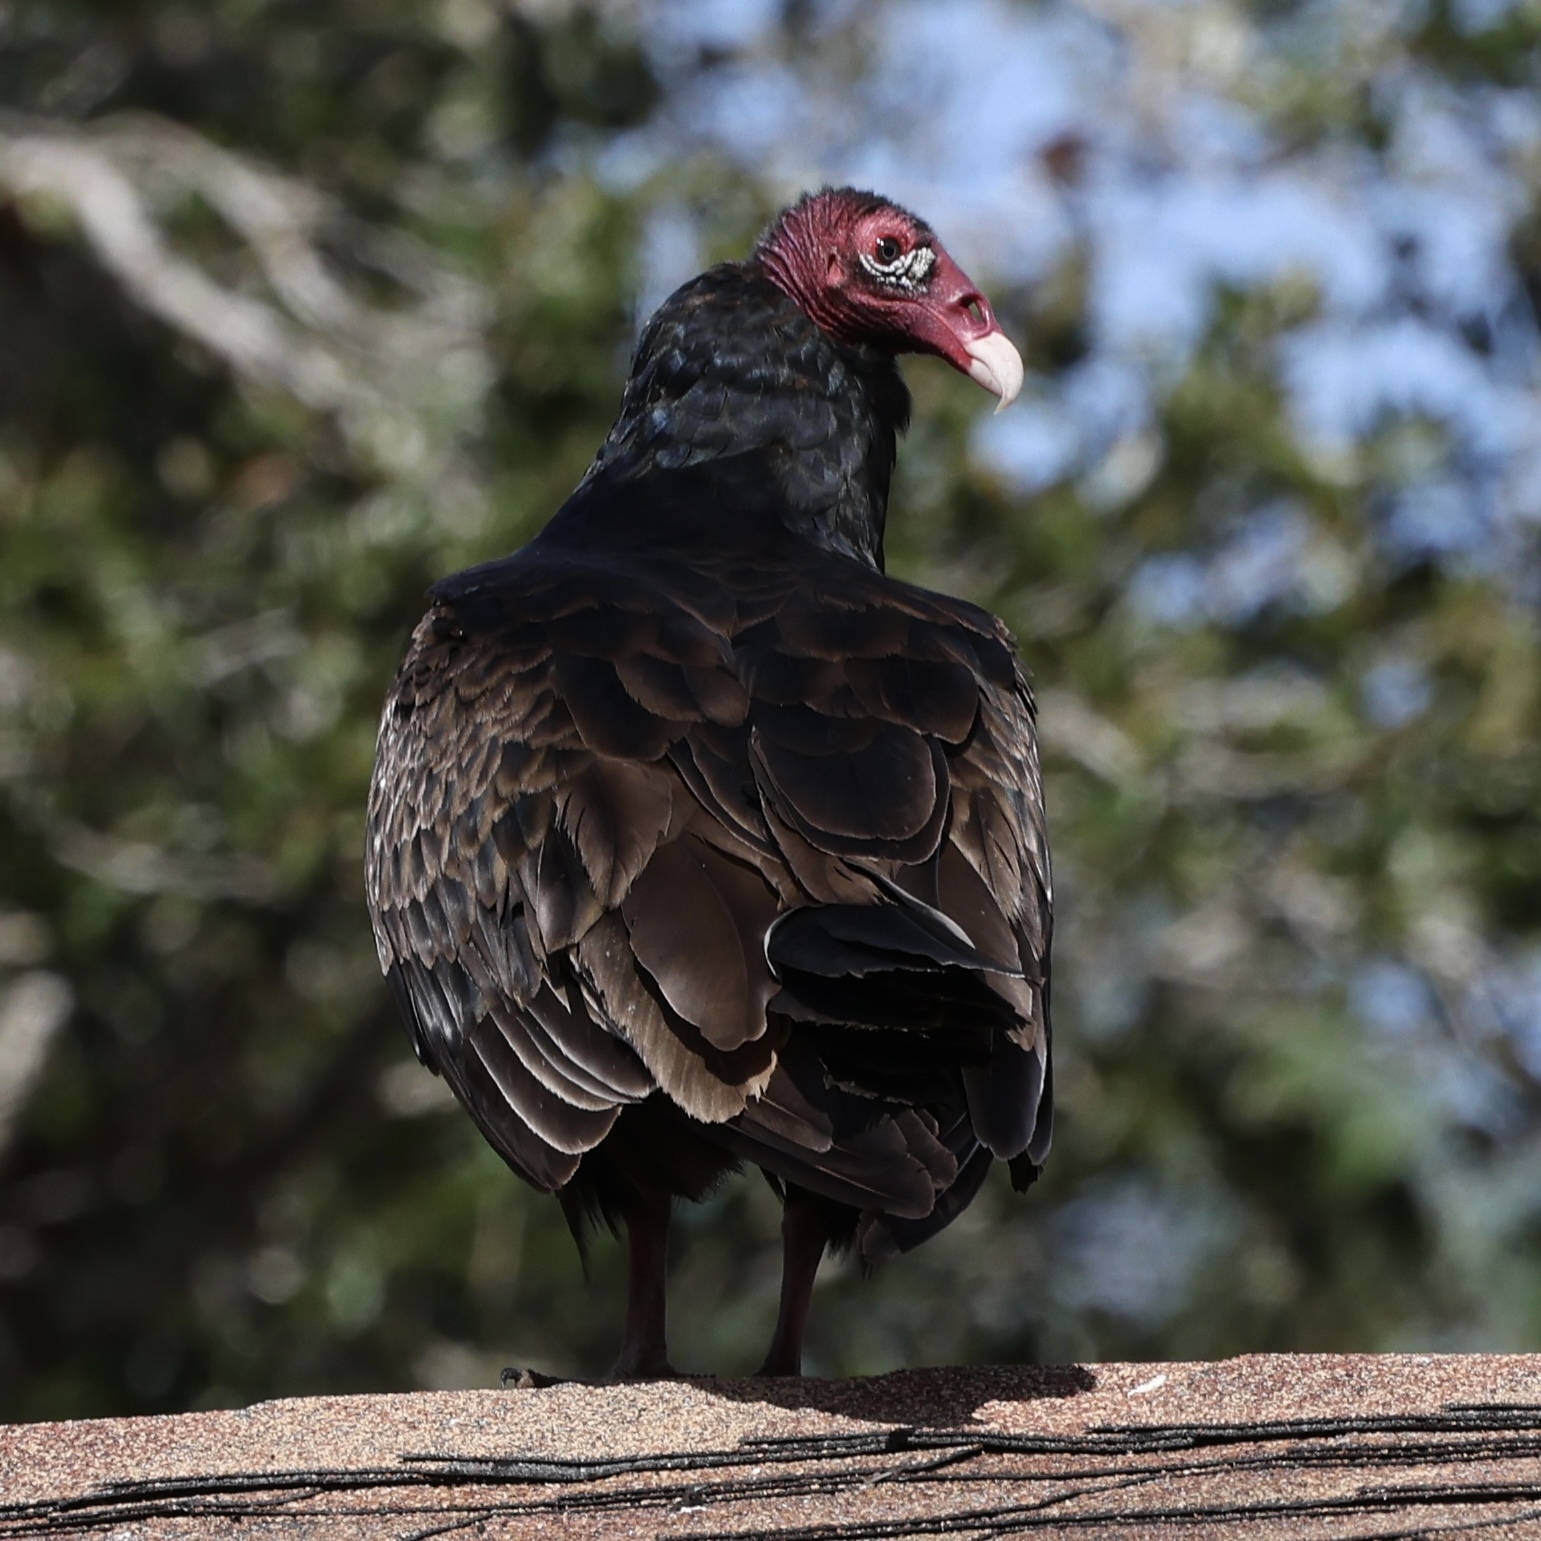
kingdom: Animalia
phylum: Chordata
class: Aves
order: Accipitriformes
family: Cathartidae
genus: Cathartes
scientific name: Cathartes aura
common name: Turkey vulture
